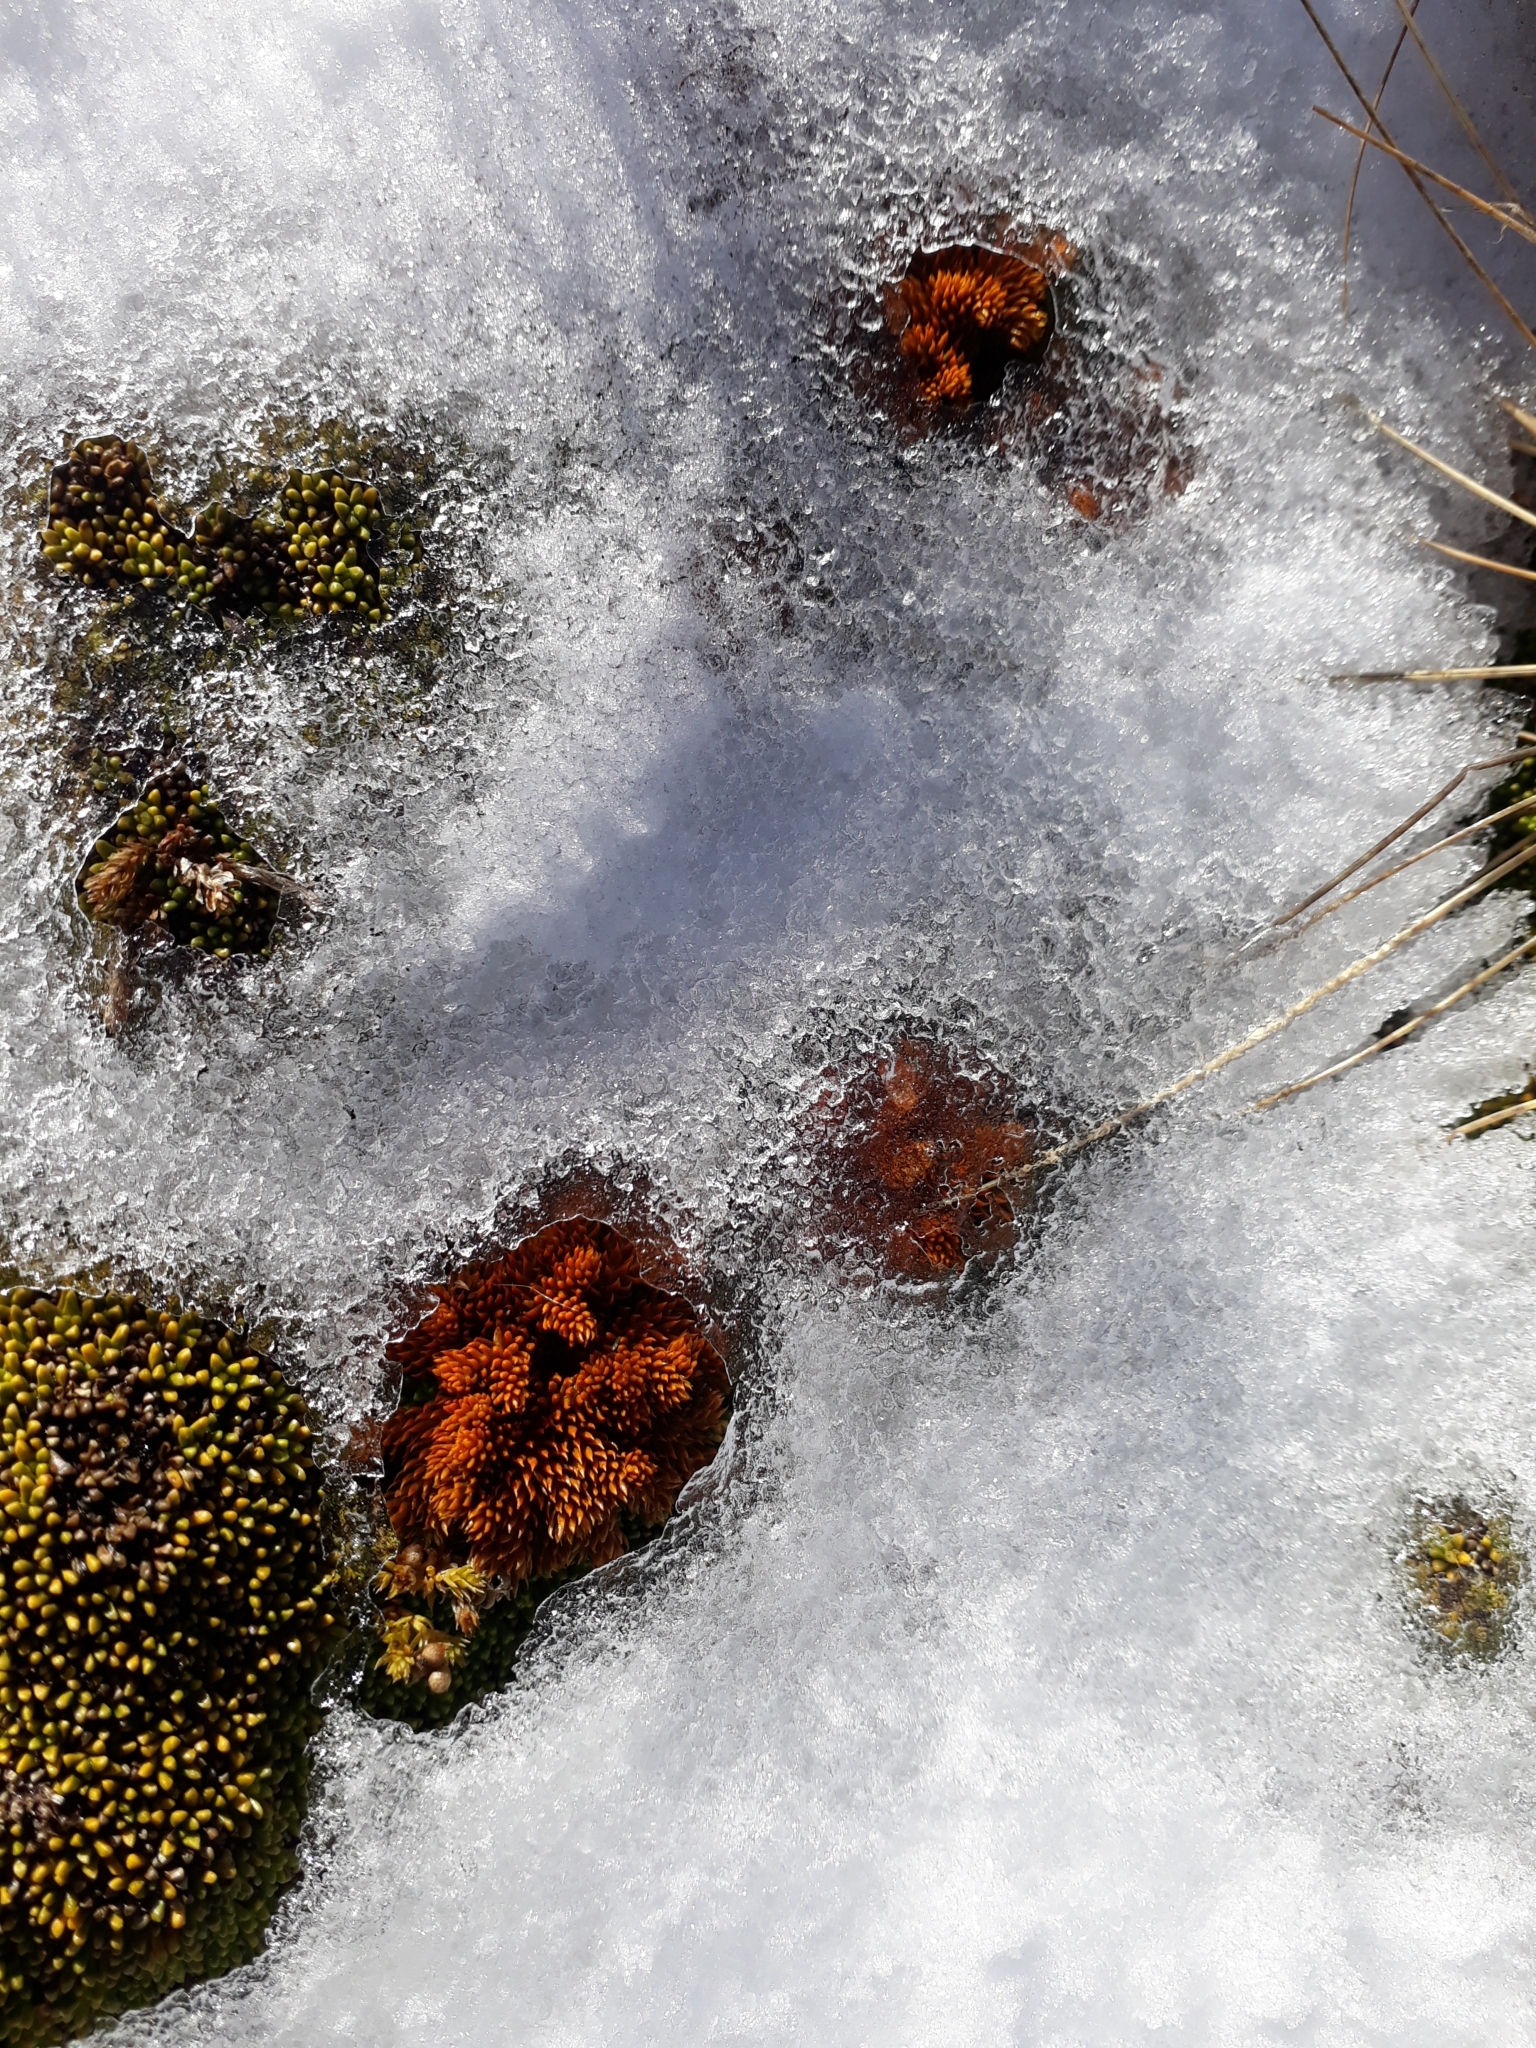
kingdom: Plantae
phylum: Tracheophyta
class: Lycopodiopsida
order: Lycopodiales
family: Lycopodiaceae
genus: Austrolycopodium
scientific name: Austrolycopodium fastigiatum
